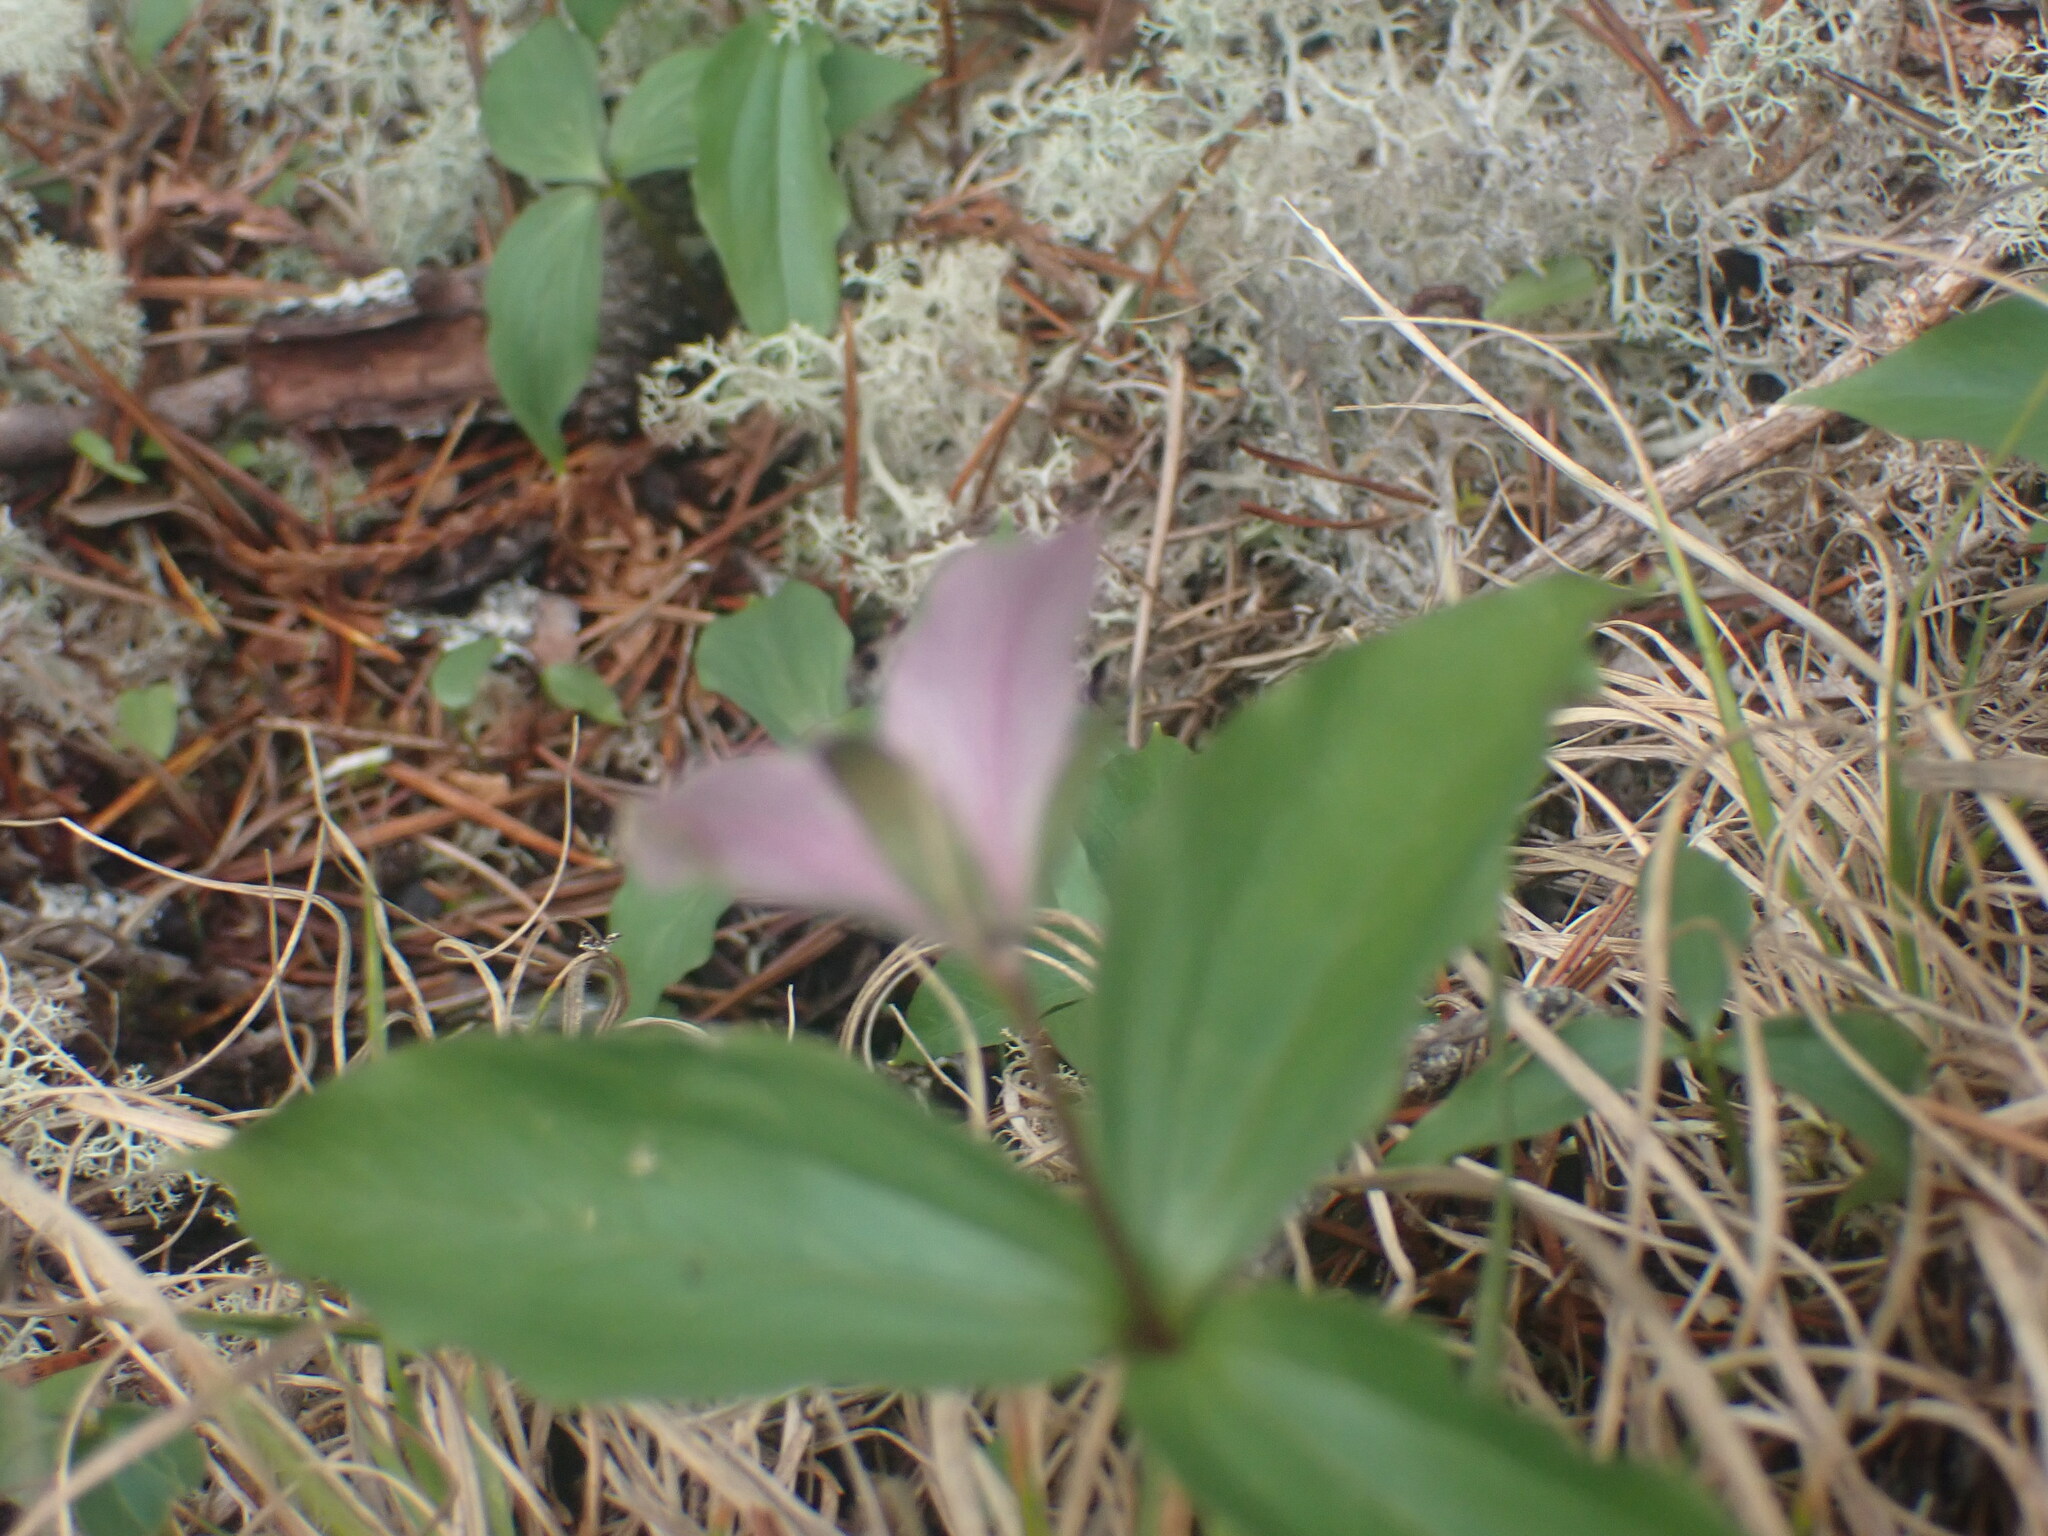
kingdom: Plantae
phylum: Tracheophyta
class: Liliopsida
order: Liliales
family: Melanthiaceae
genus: Trillium
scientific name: Trillium hibbersonii
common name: Hibberson's trillium
